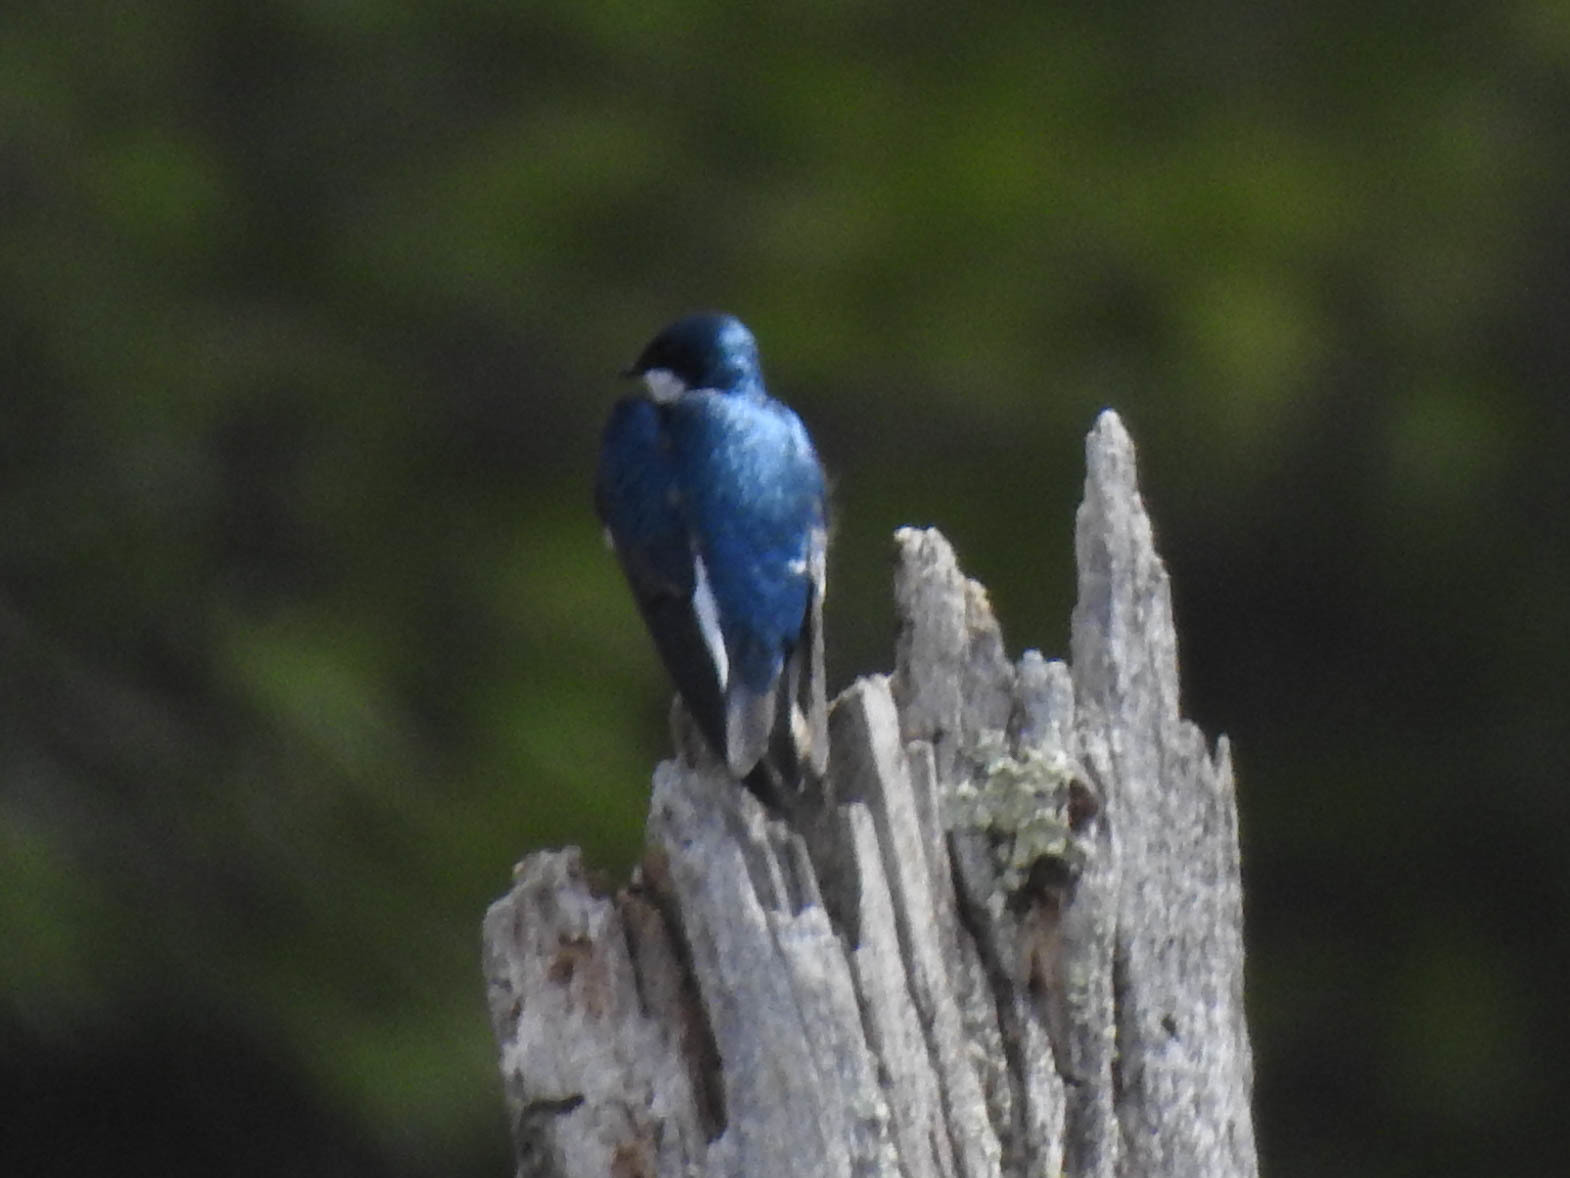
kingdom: Animalia
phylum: Chordata
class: Aves
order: Passeriformes
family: Hirundinidae
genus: Tachycineta
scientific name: Tachycineta bicolor
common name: Tree swallow
